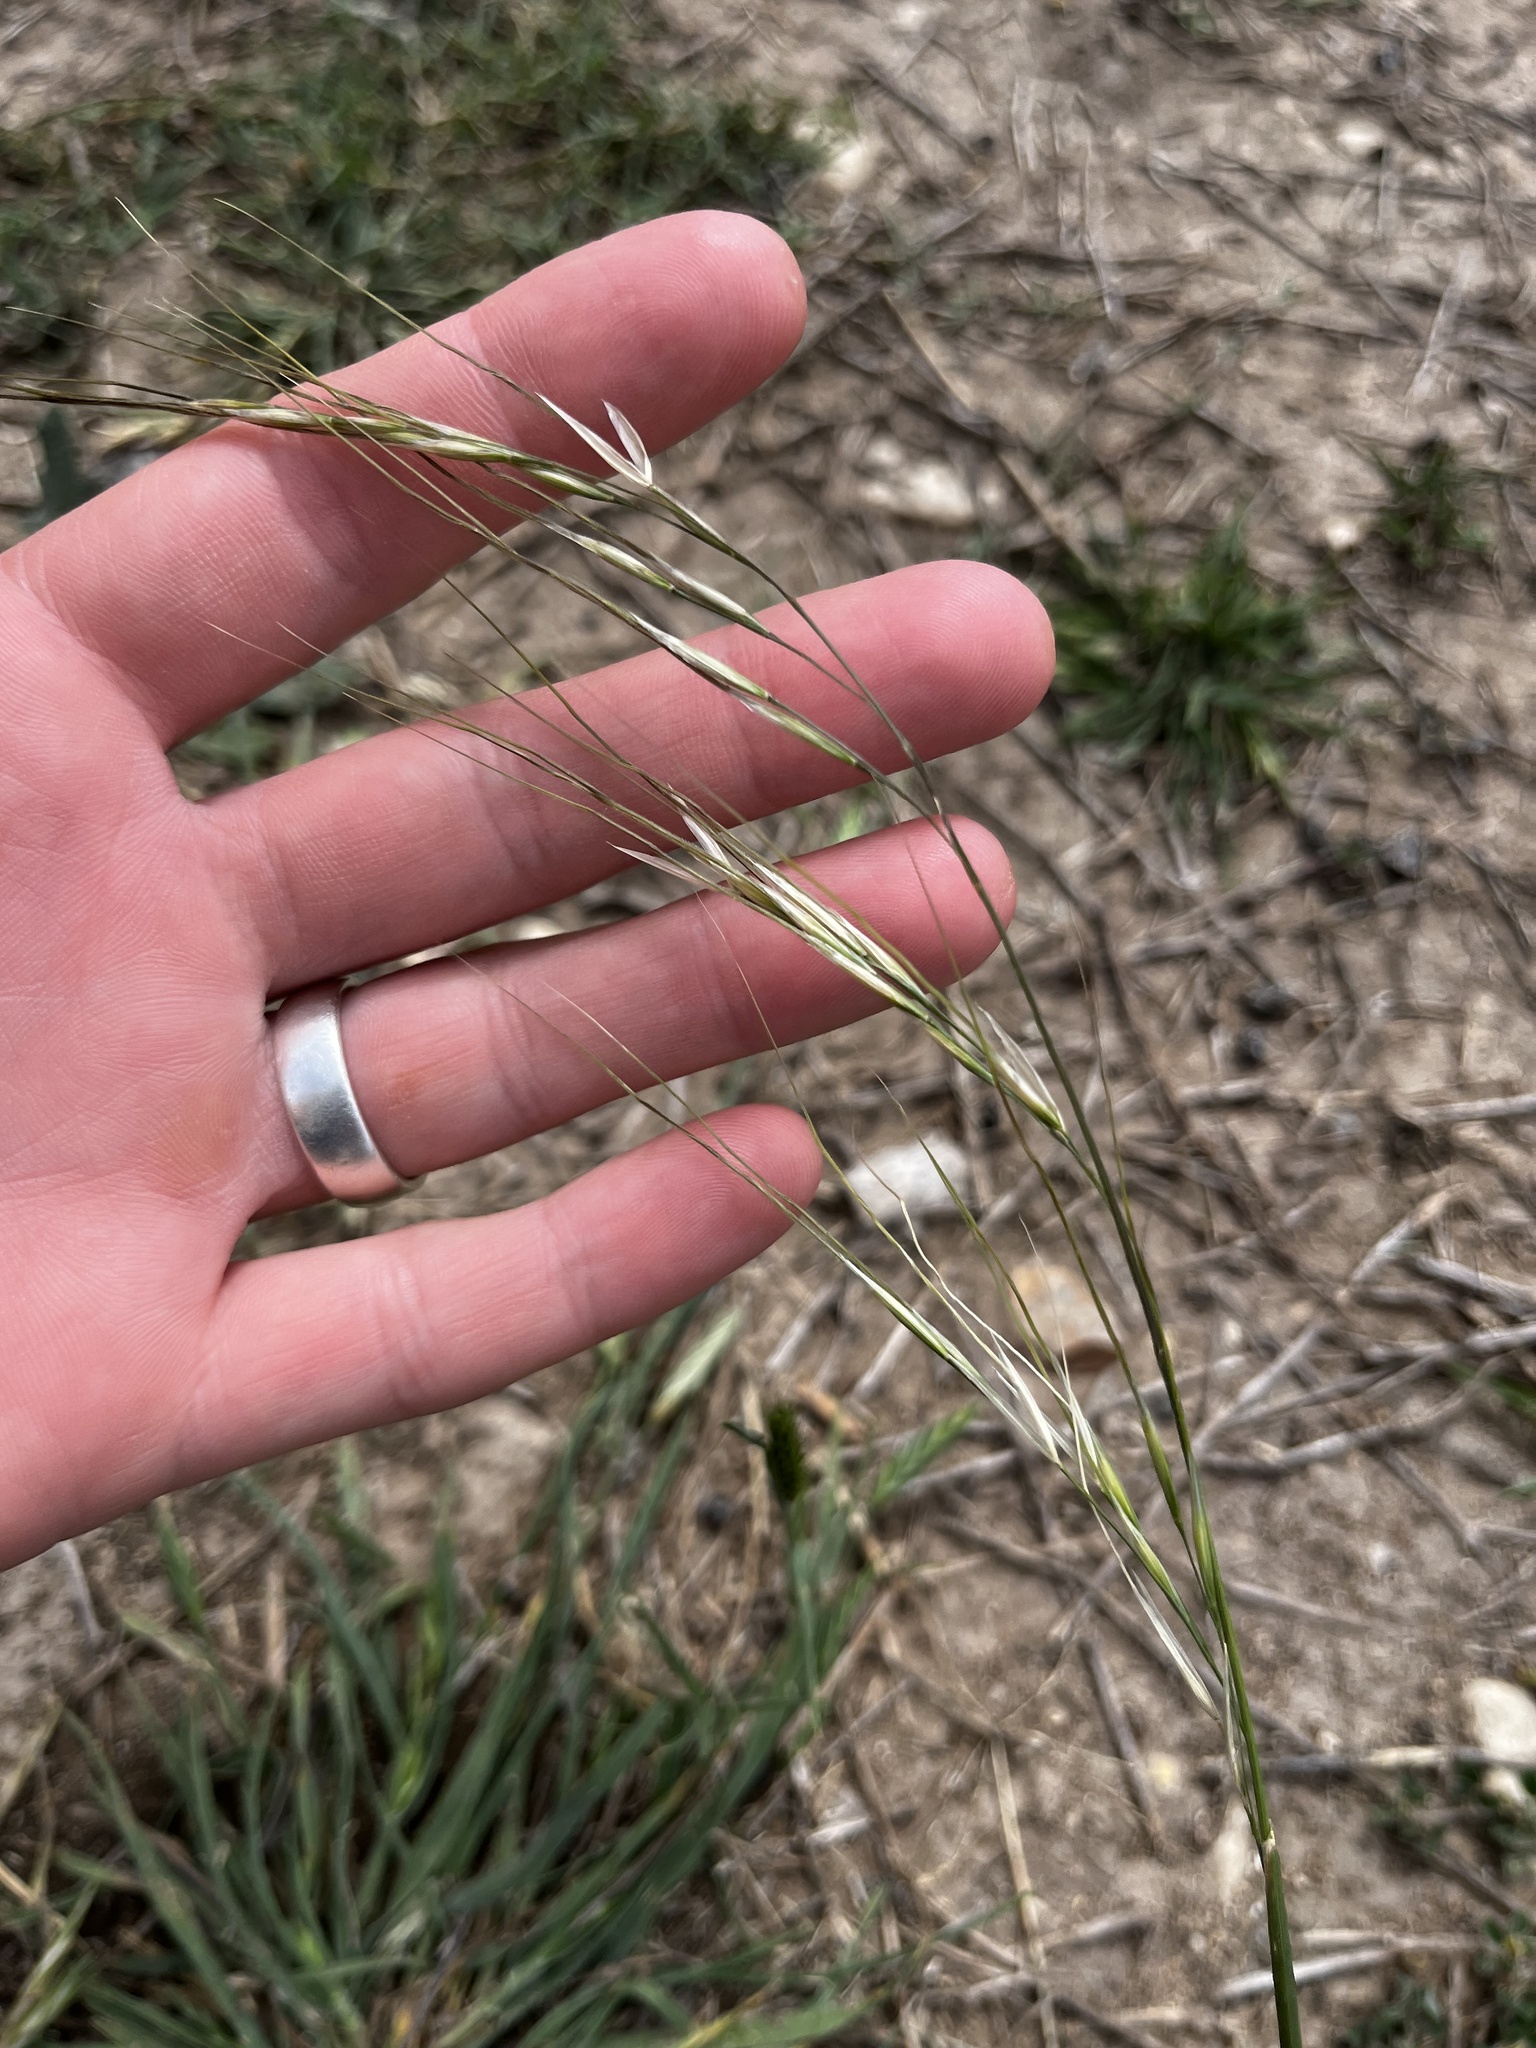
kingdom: Plantae
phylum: Tracheophyta
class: Liliopsida
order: Poales
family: Poaceae
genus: Nassella
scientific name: Nassella leucotricha
